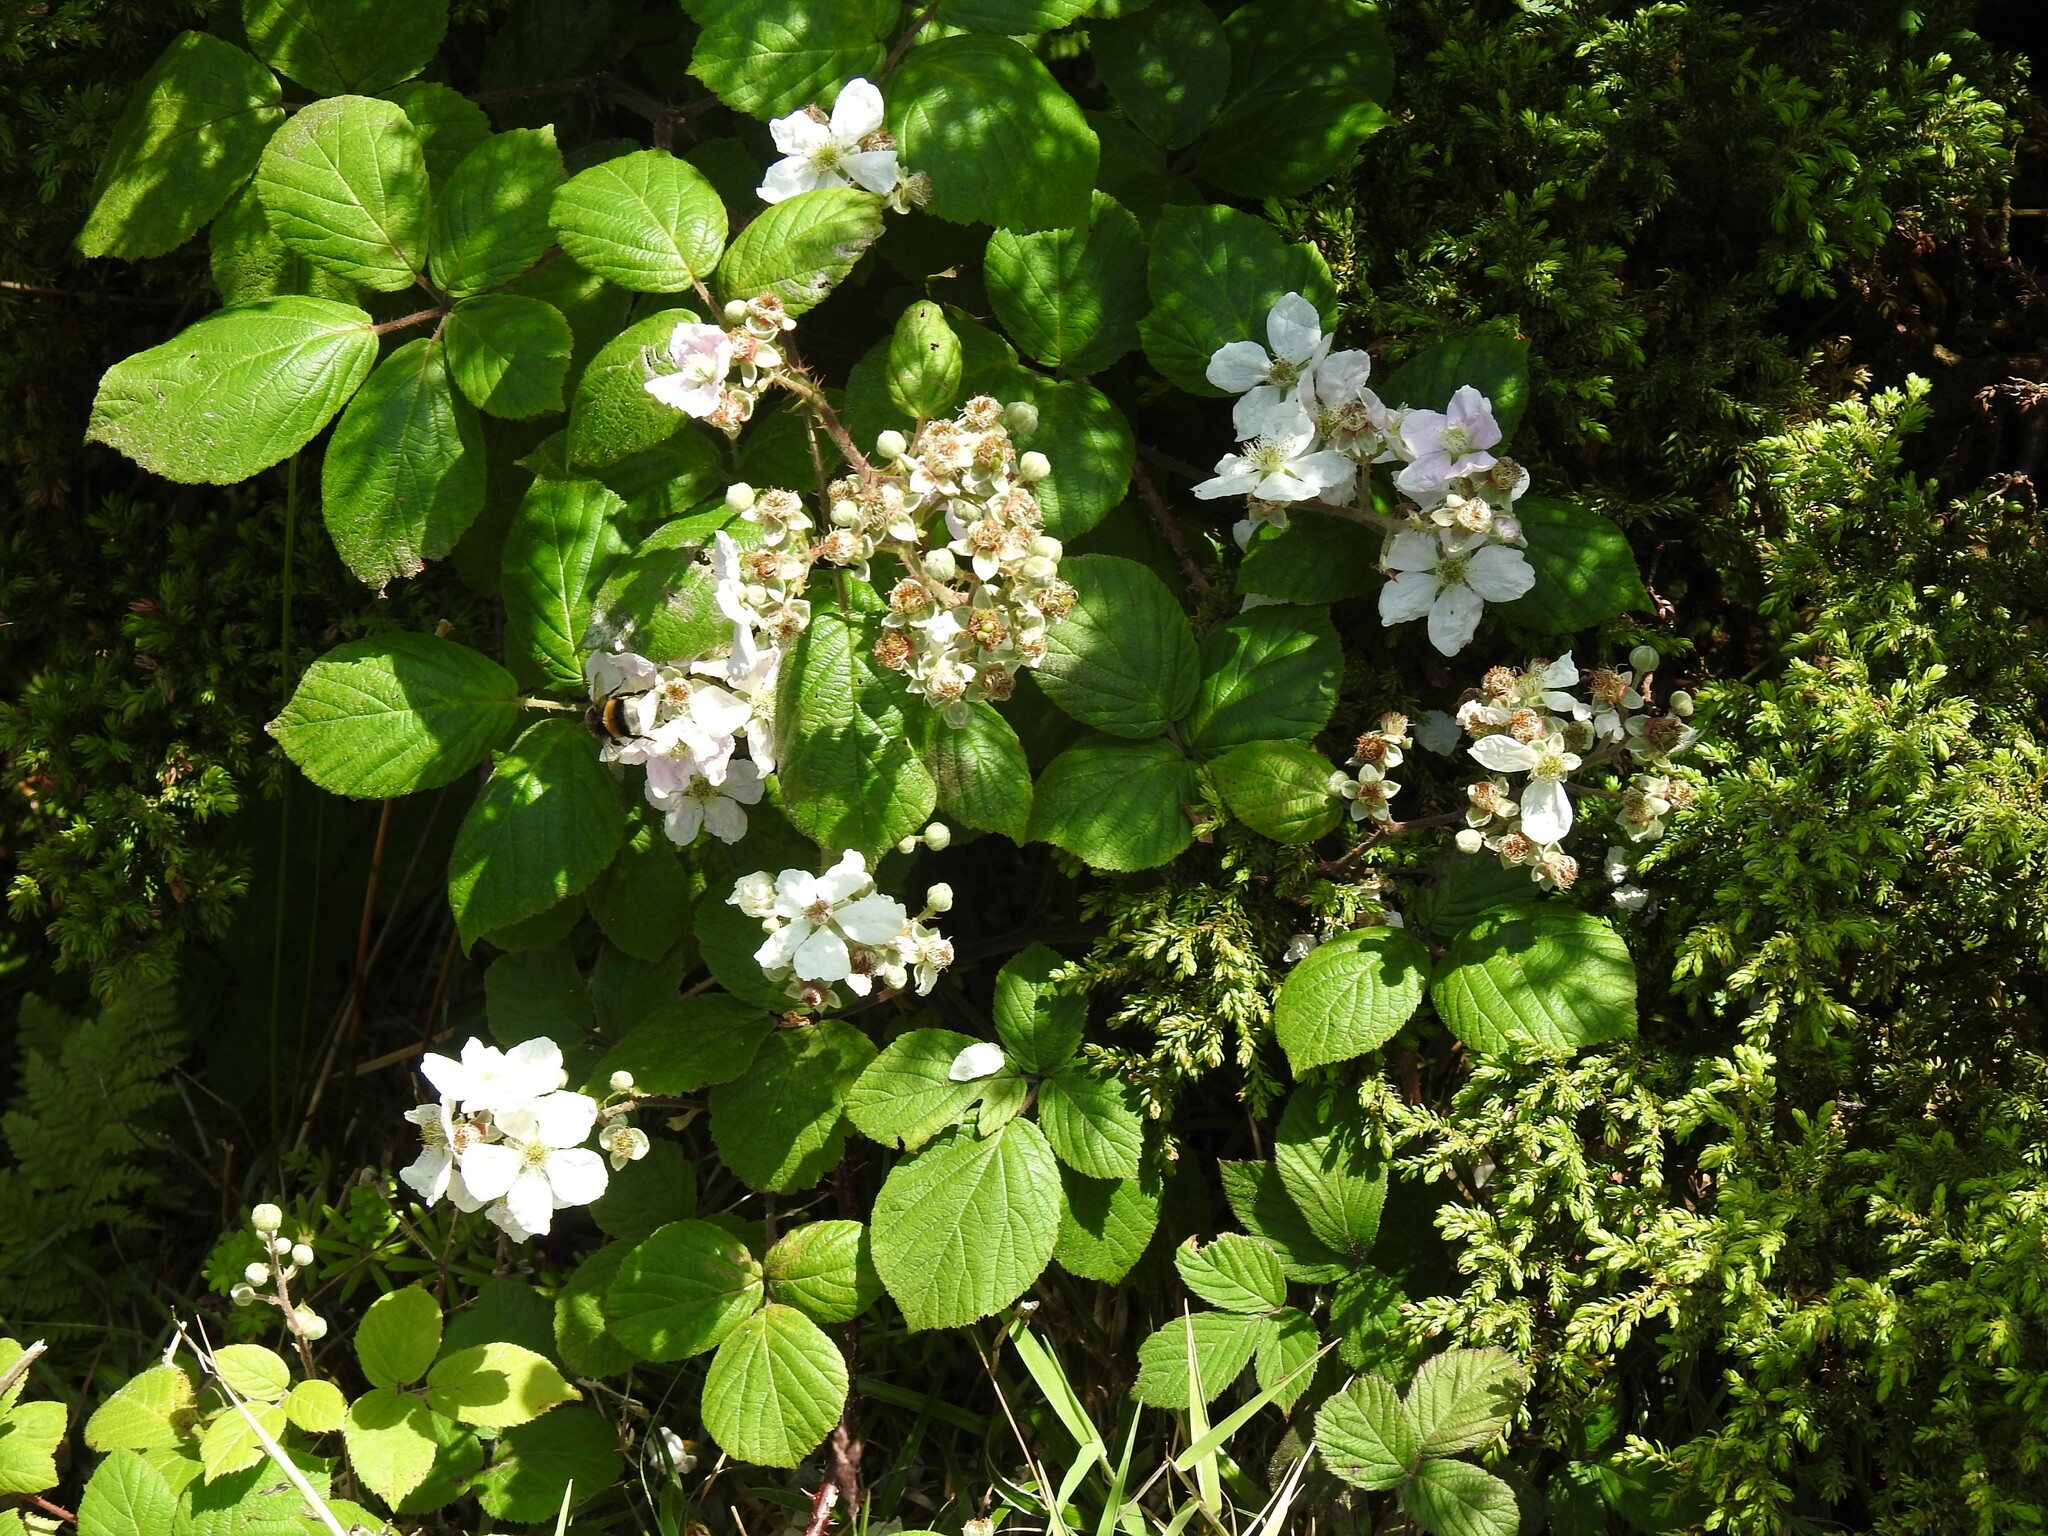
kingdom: Plantae
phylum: Tracheophyta
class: Magnoliopsida
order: Rosales
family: Rosaceae
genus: Rubus
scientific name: Rubus hochstetterorum
